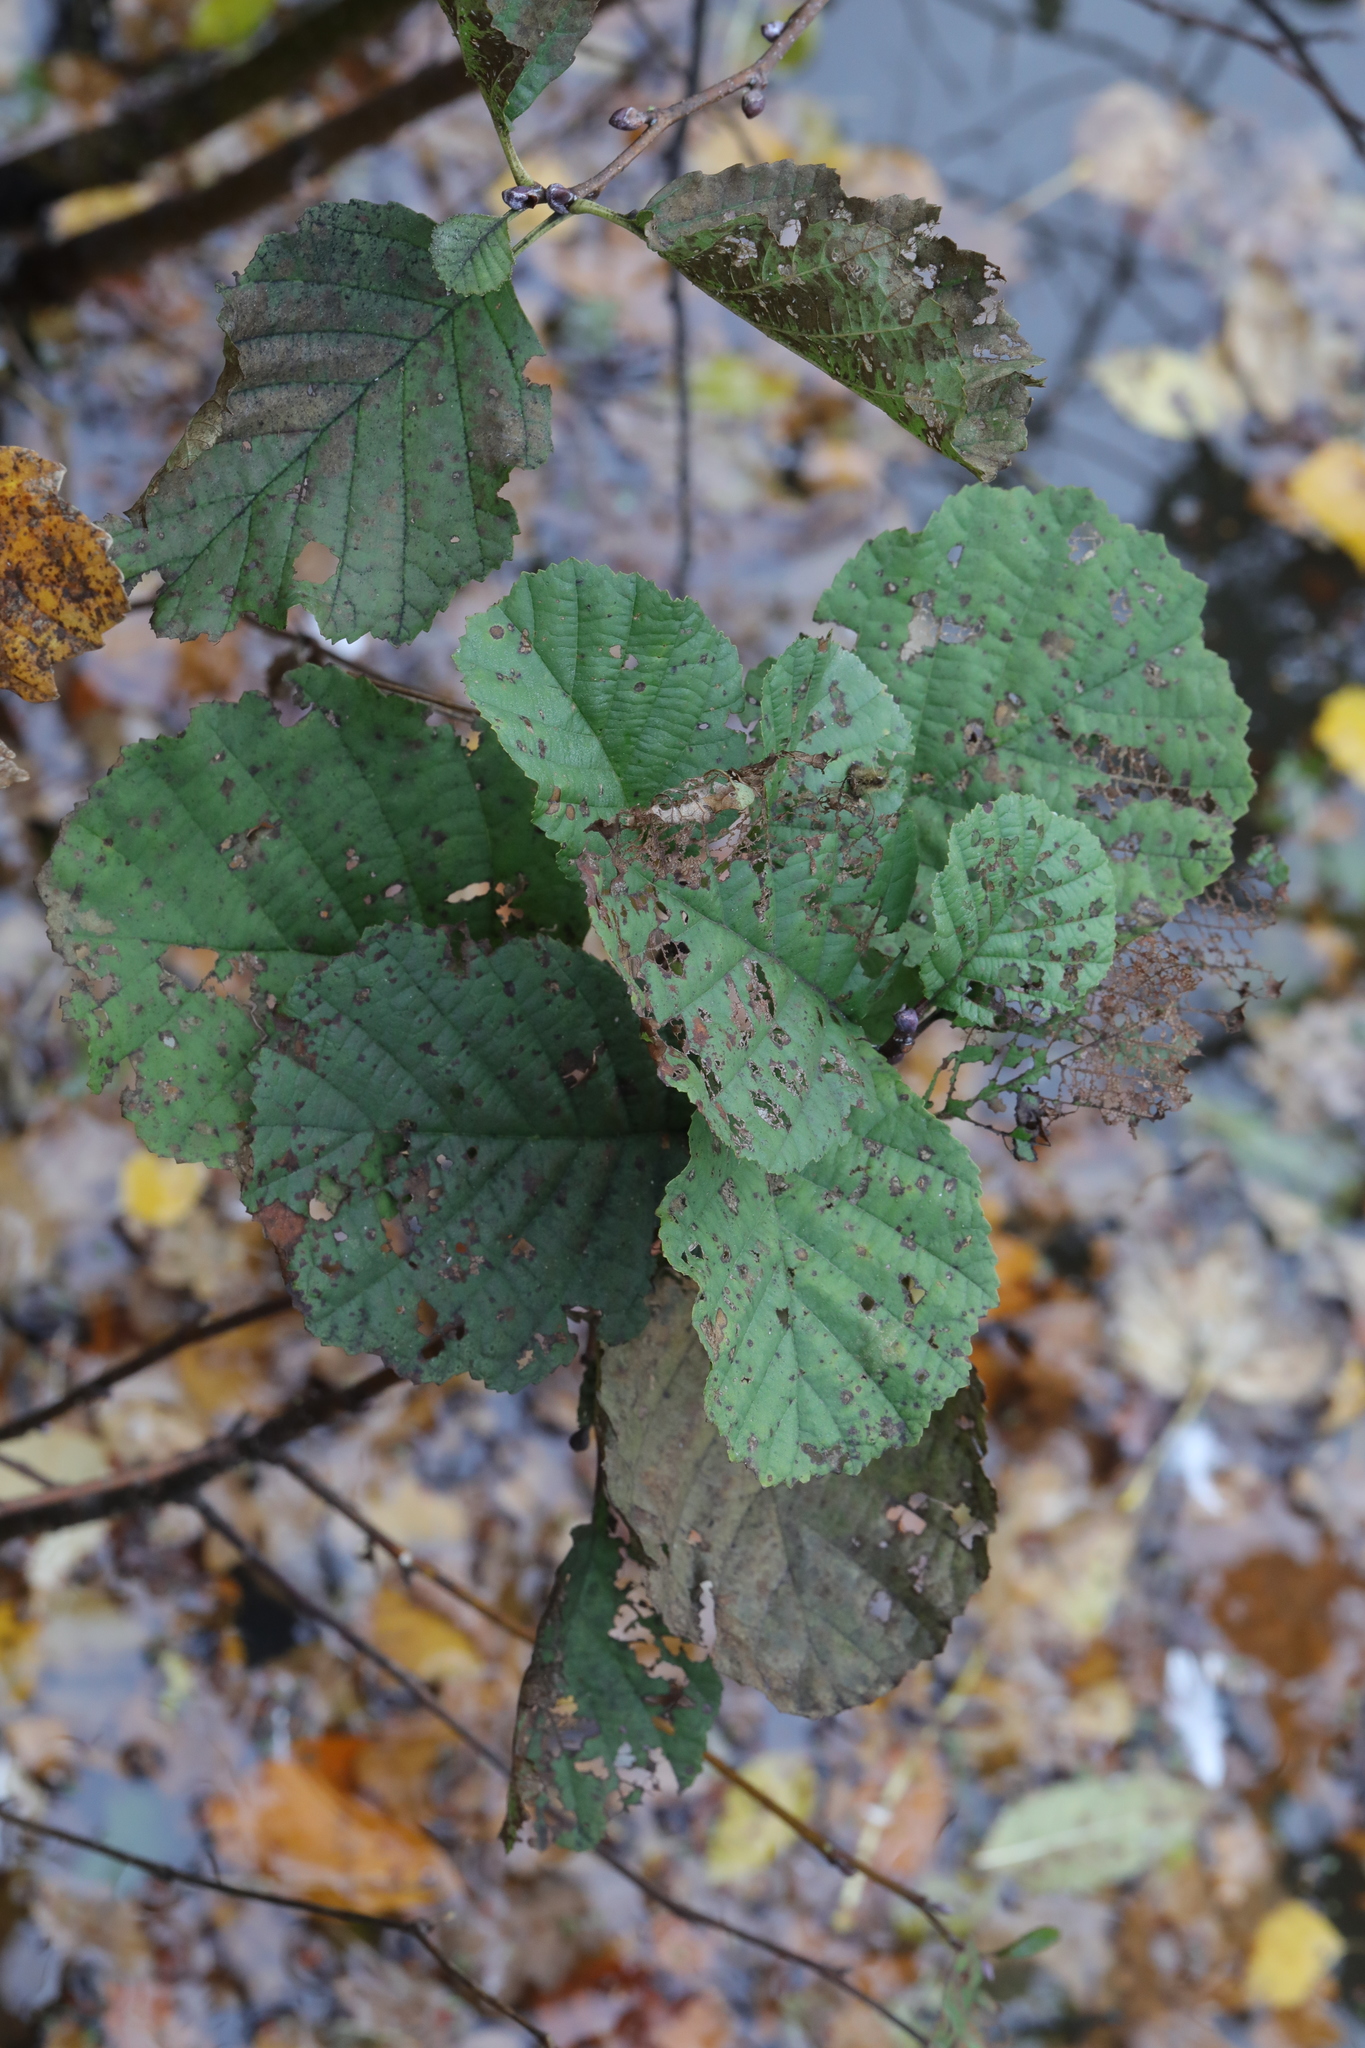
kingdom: Plantae
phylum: Tracheophyta
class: Magnoliopsida
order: Fagales
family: Betulaceae
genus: Alnus
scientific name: Alnus glutinosa
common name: Black alder
